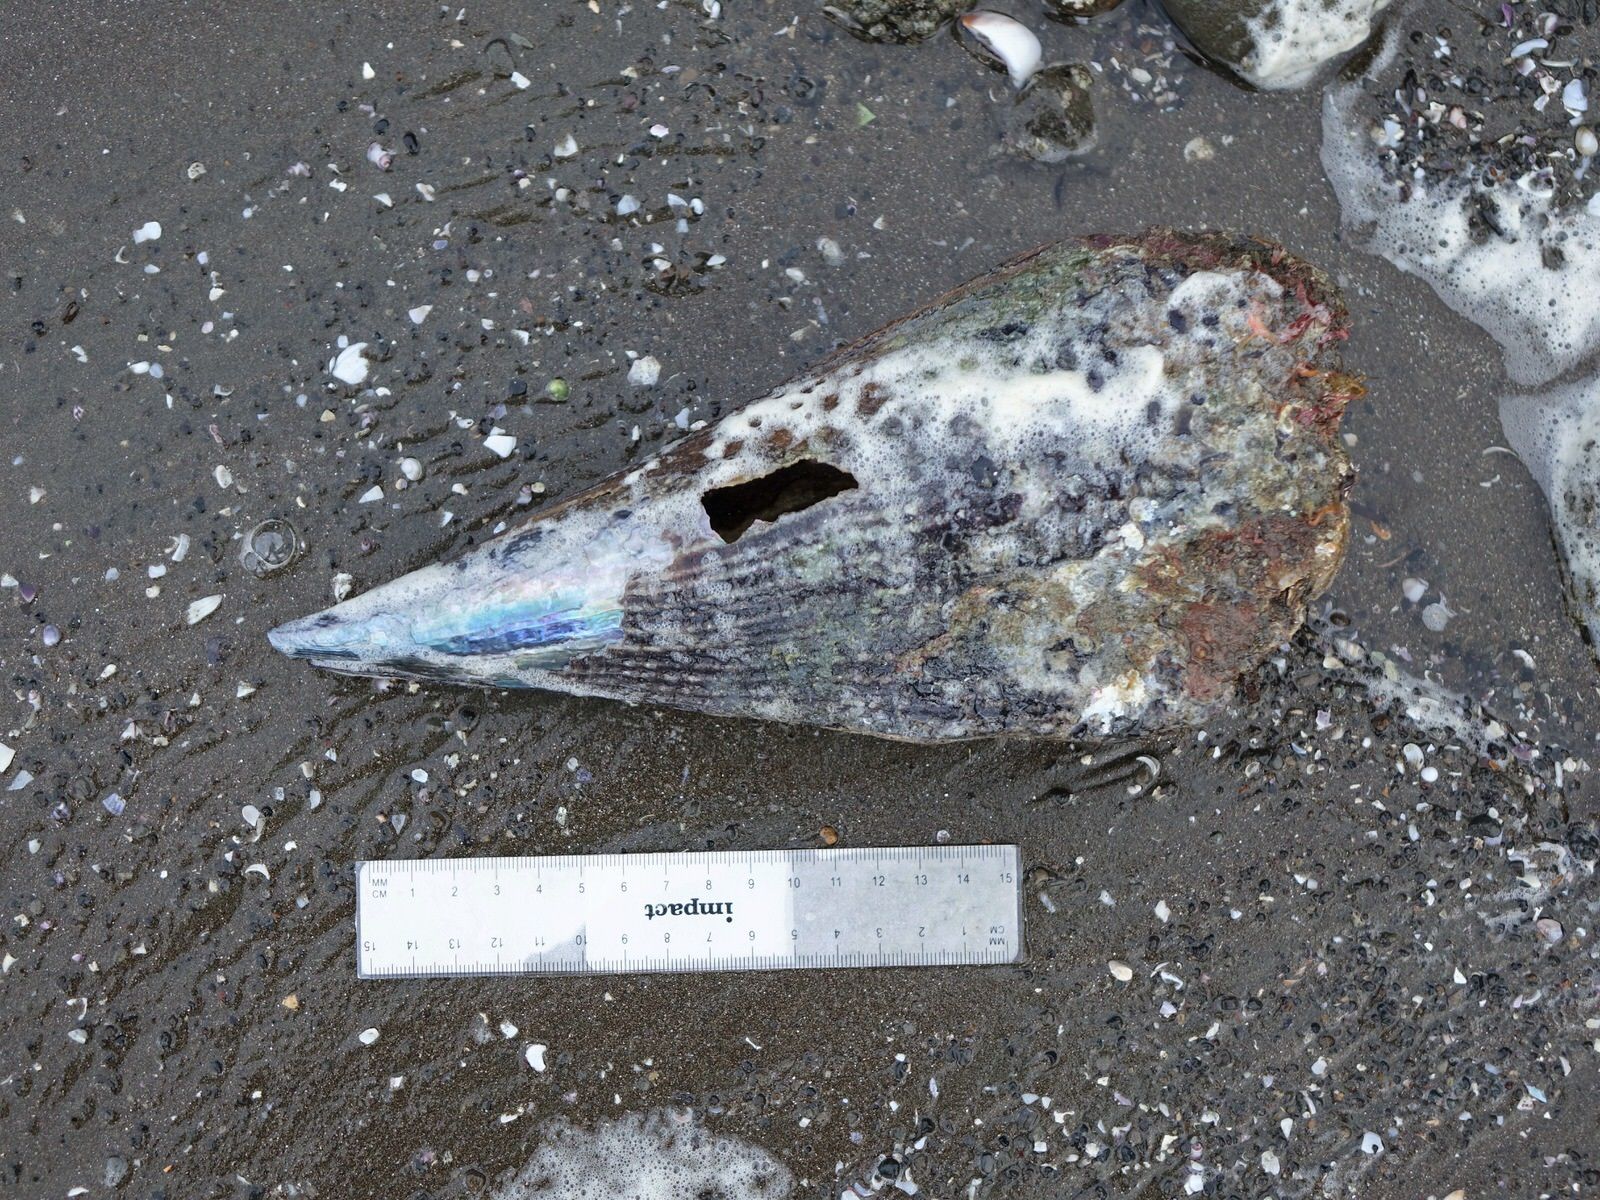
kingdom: Animalia
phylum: Mollusca
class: Bivalvia
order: Ostreida
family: Pinnidae
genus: Atrina
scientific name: Atrina zelandica
